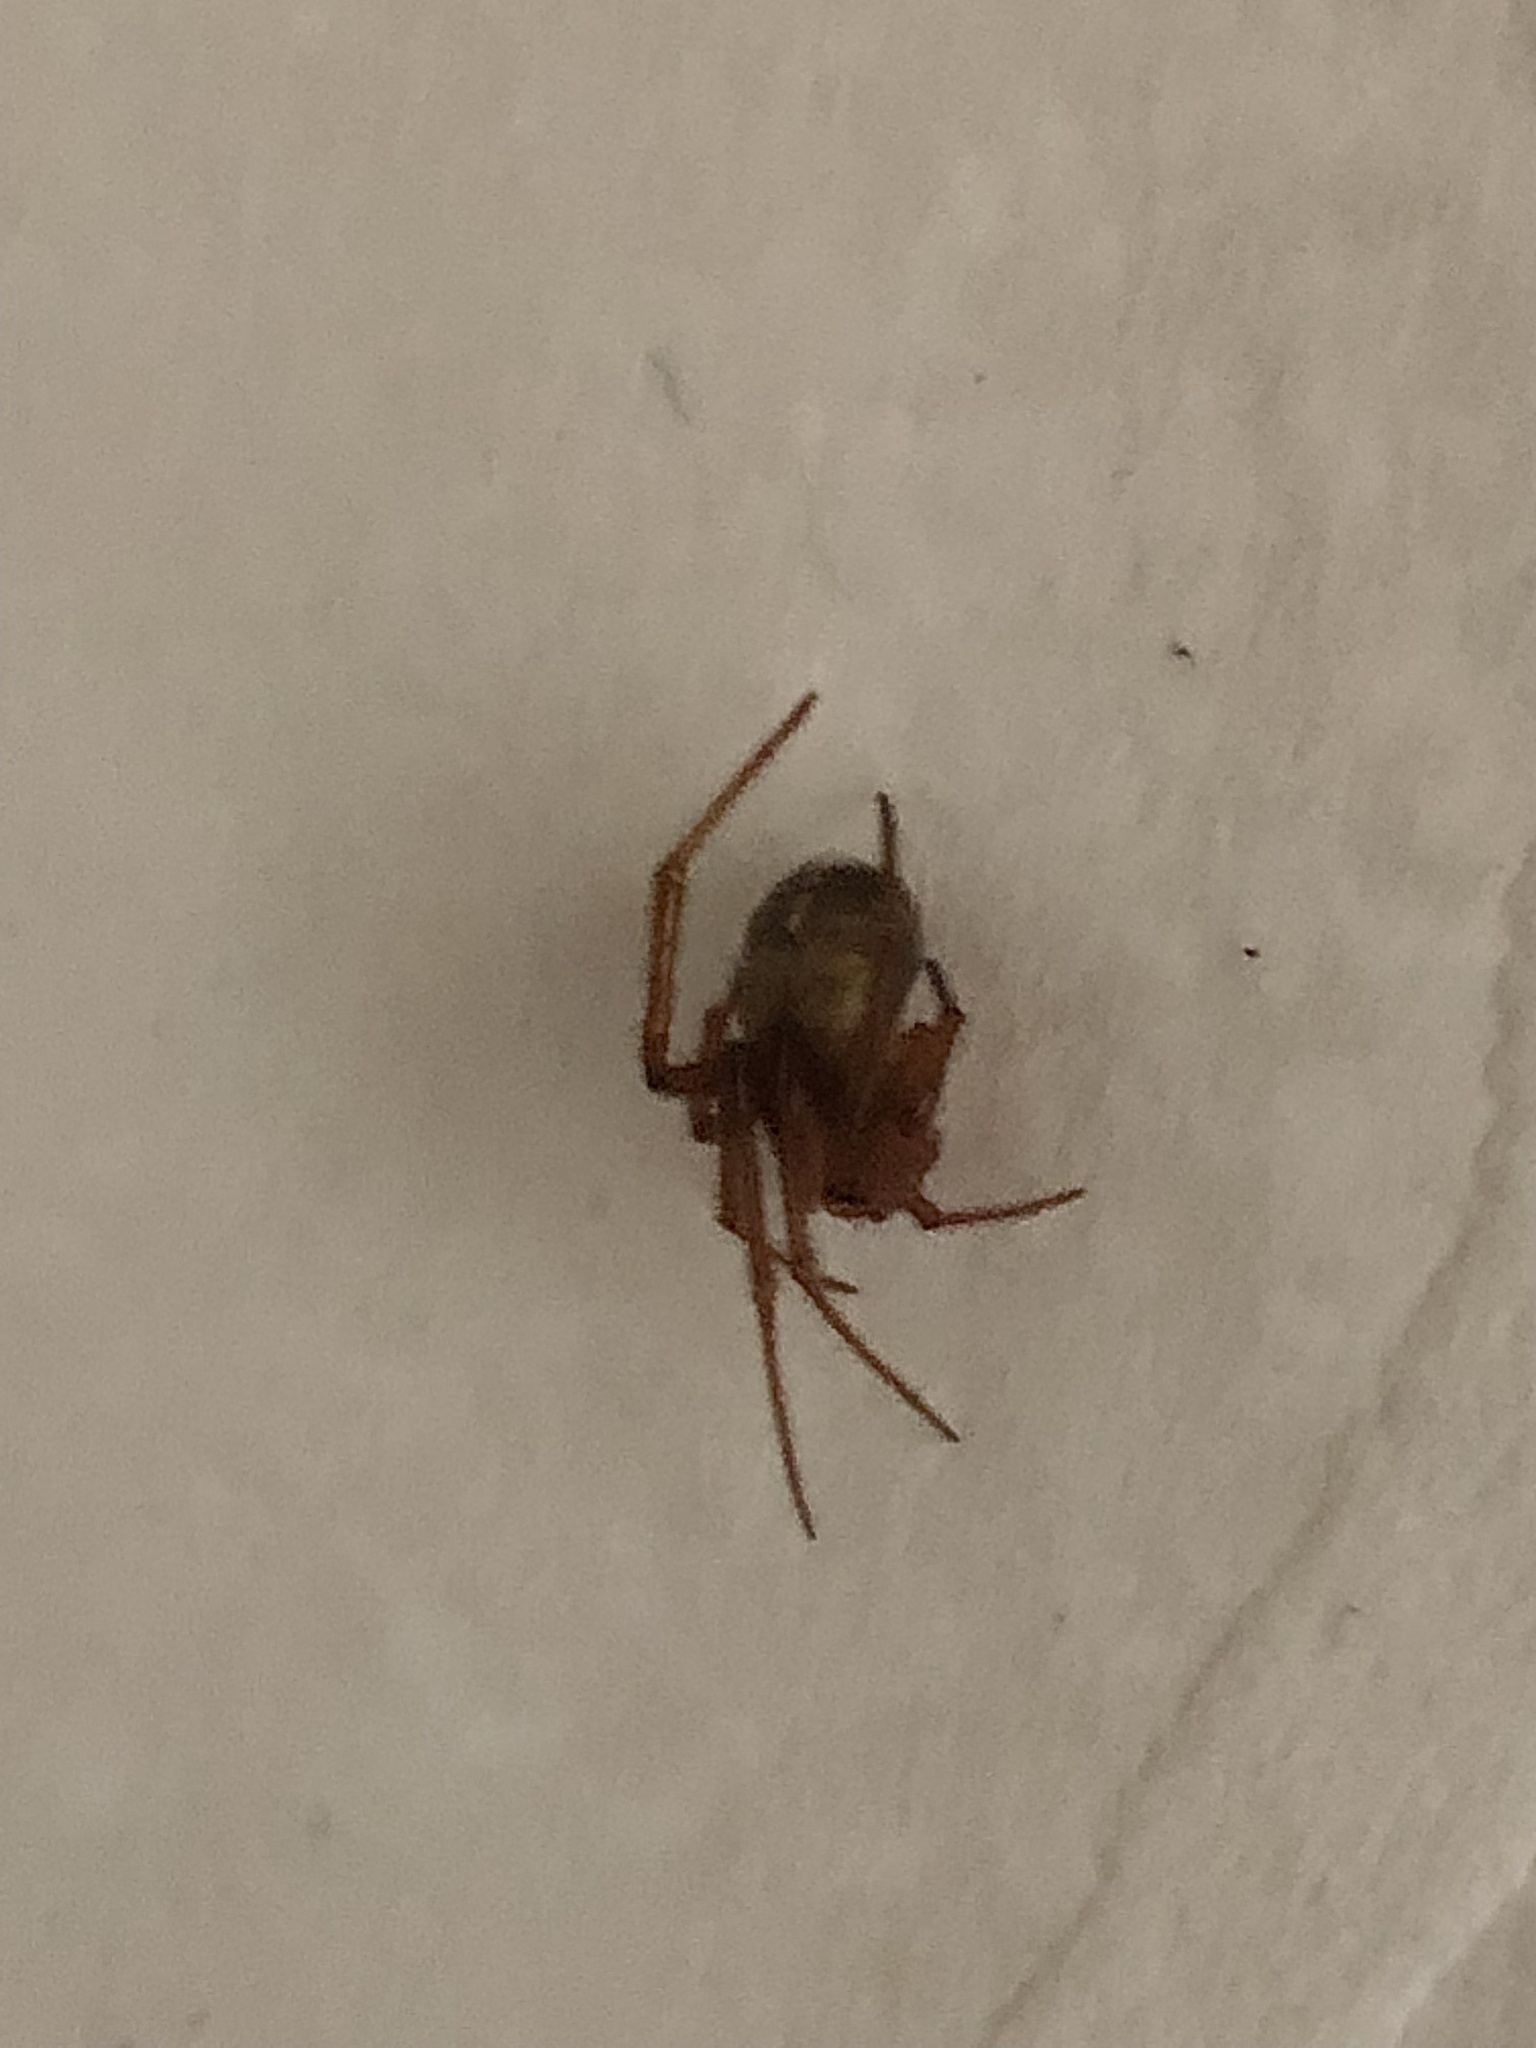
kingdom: Animalia
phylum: Arthropoda
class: Arachnida
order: Araneae
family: Theridiidae
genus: Nesticodes
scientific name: Nesticodes rufipes
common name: Cobweb spiders
